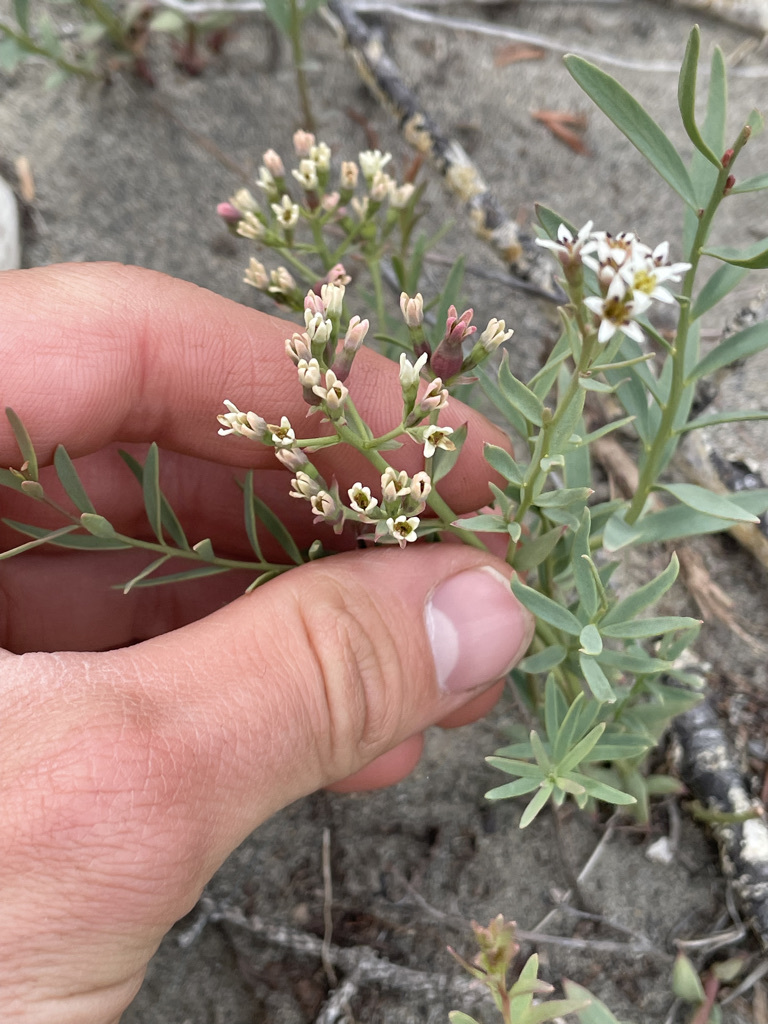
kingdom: Plantae
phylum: Tracheophyta
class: Magnoliopsida
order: Santalales
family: Comandraceae
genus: Comandra
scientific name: Comandra umbellata
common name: Bastard toadflax
